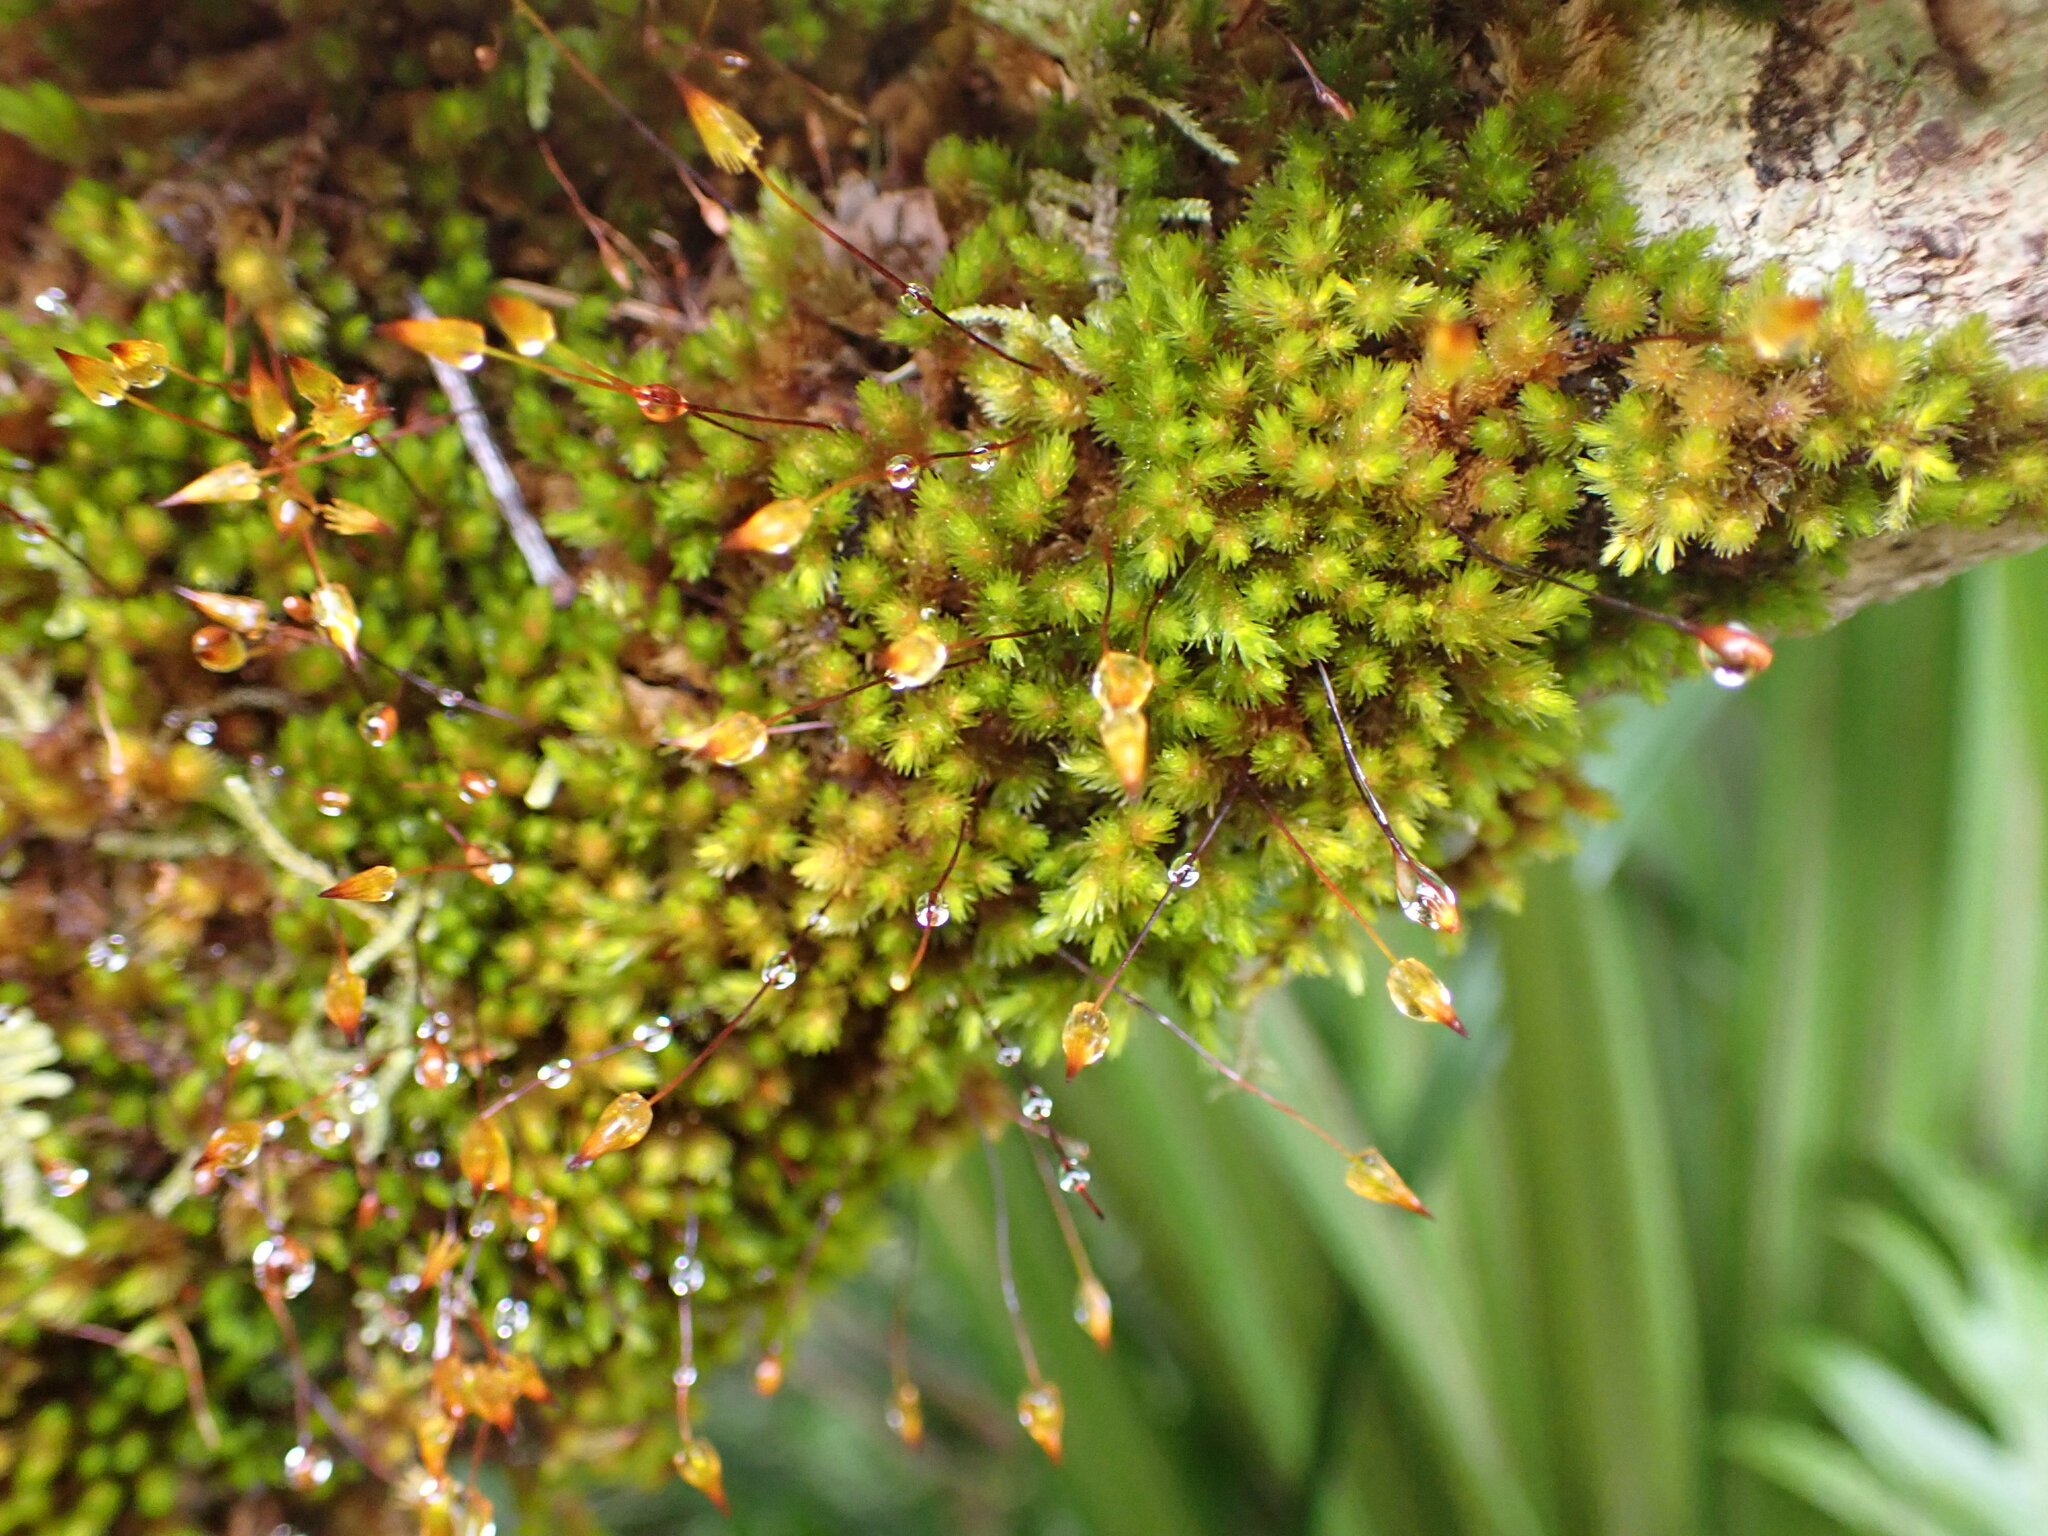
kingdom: Plantae
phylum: Bryophyta
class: Bryopsida
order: Orthotrichales
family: Orthotrichaceae
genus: Macromitrium
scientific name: Macromitrium longipes
